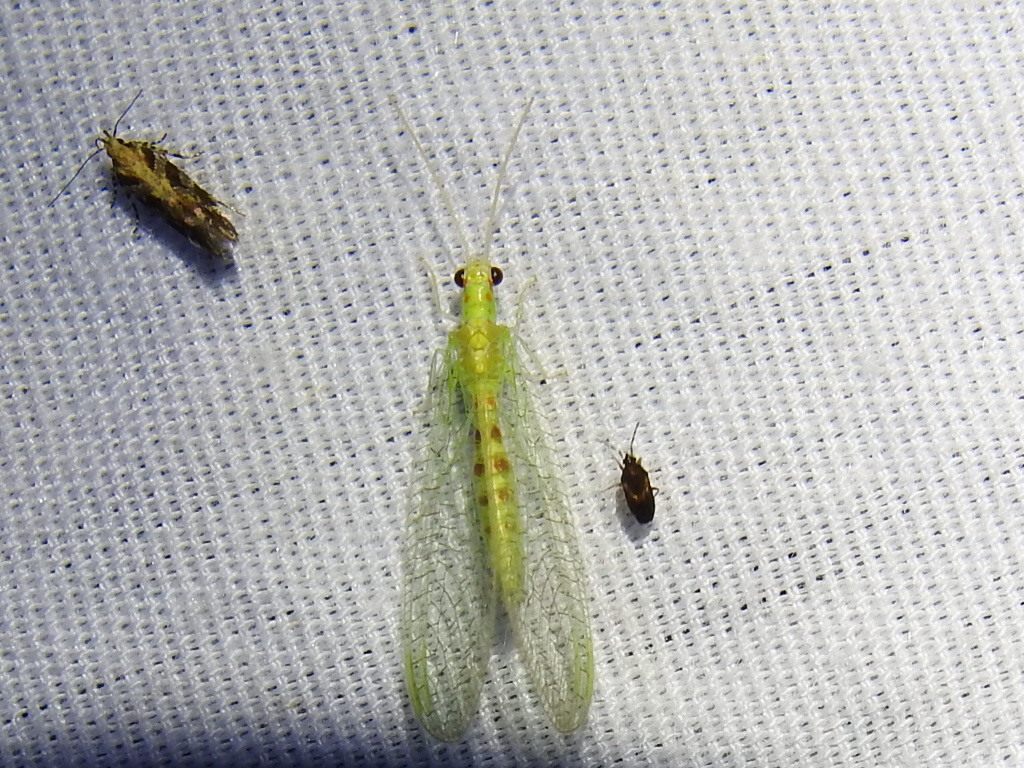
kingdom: Animalia
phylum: Arthropoda
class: Insecta
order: Neuroptera
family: Chrysopidae
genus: Chrysopa
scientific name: Chrysopa quadripunctata
